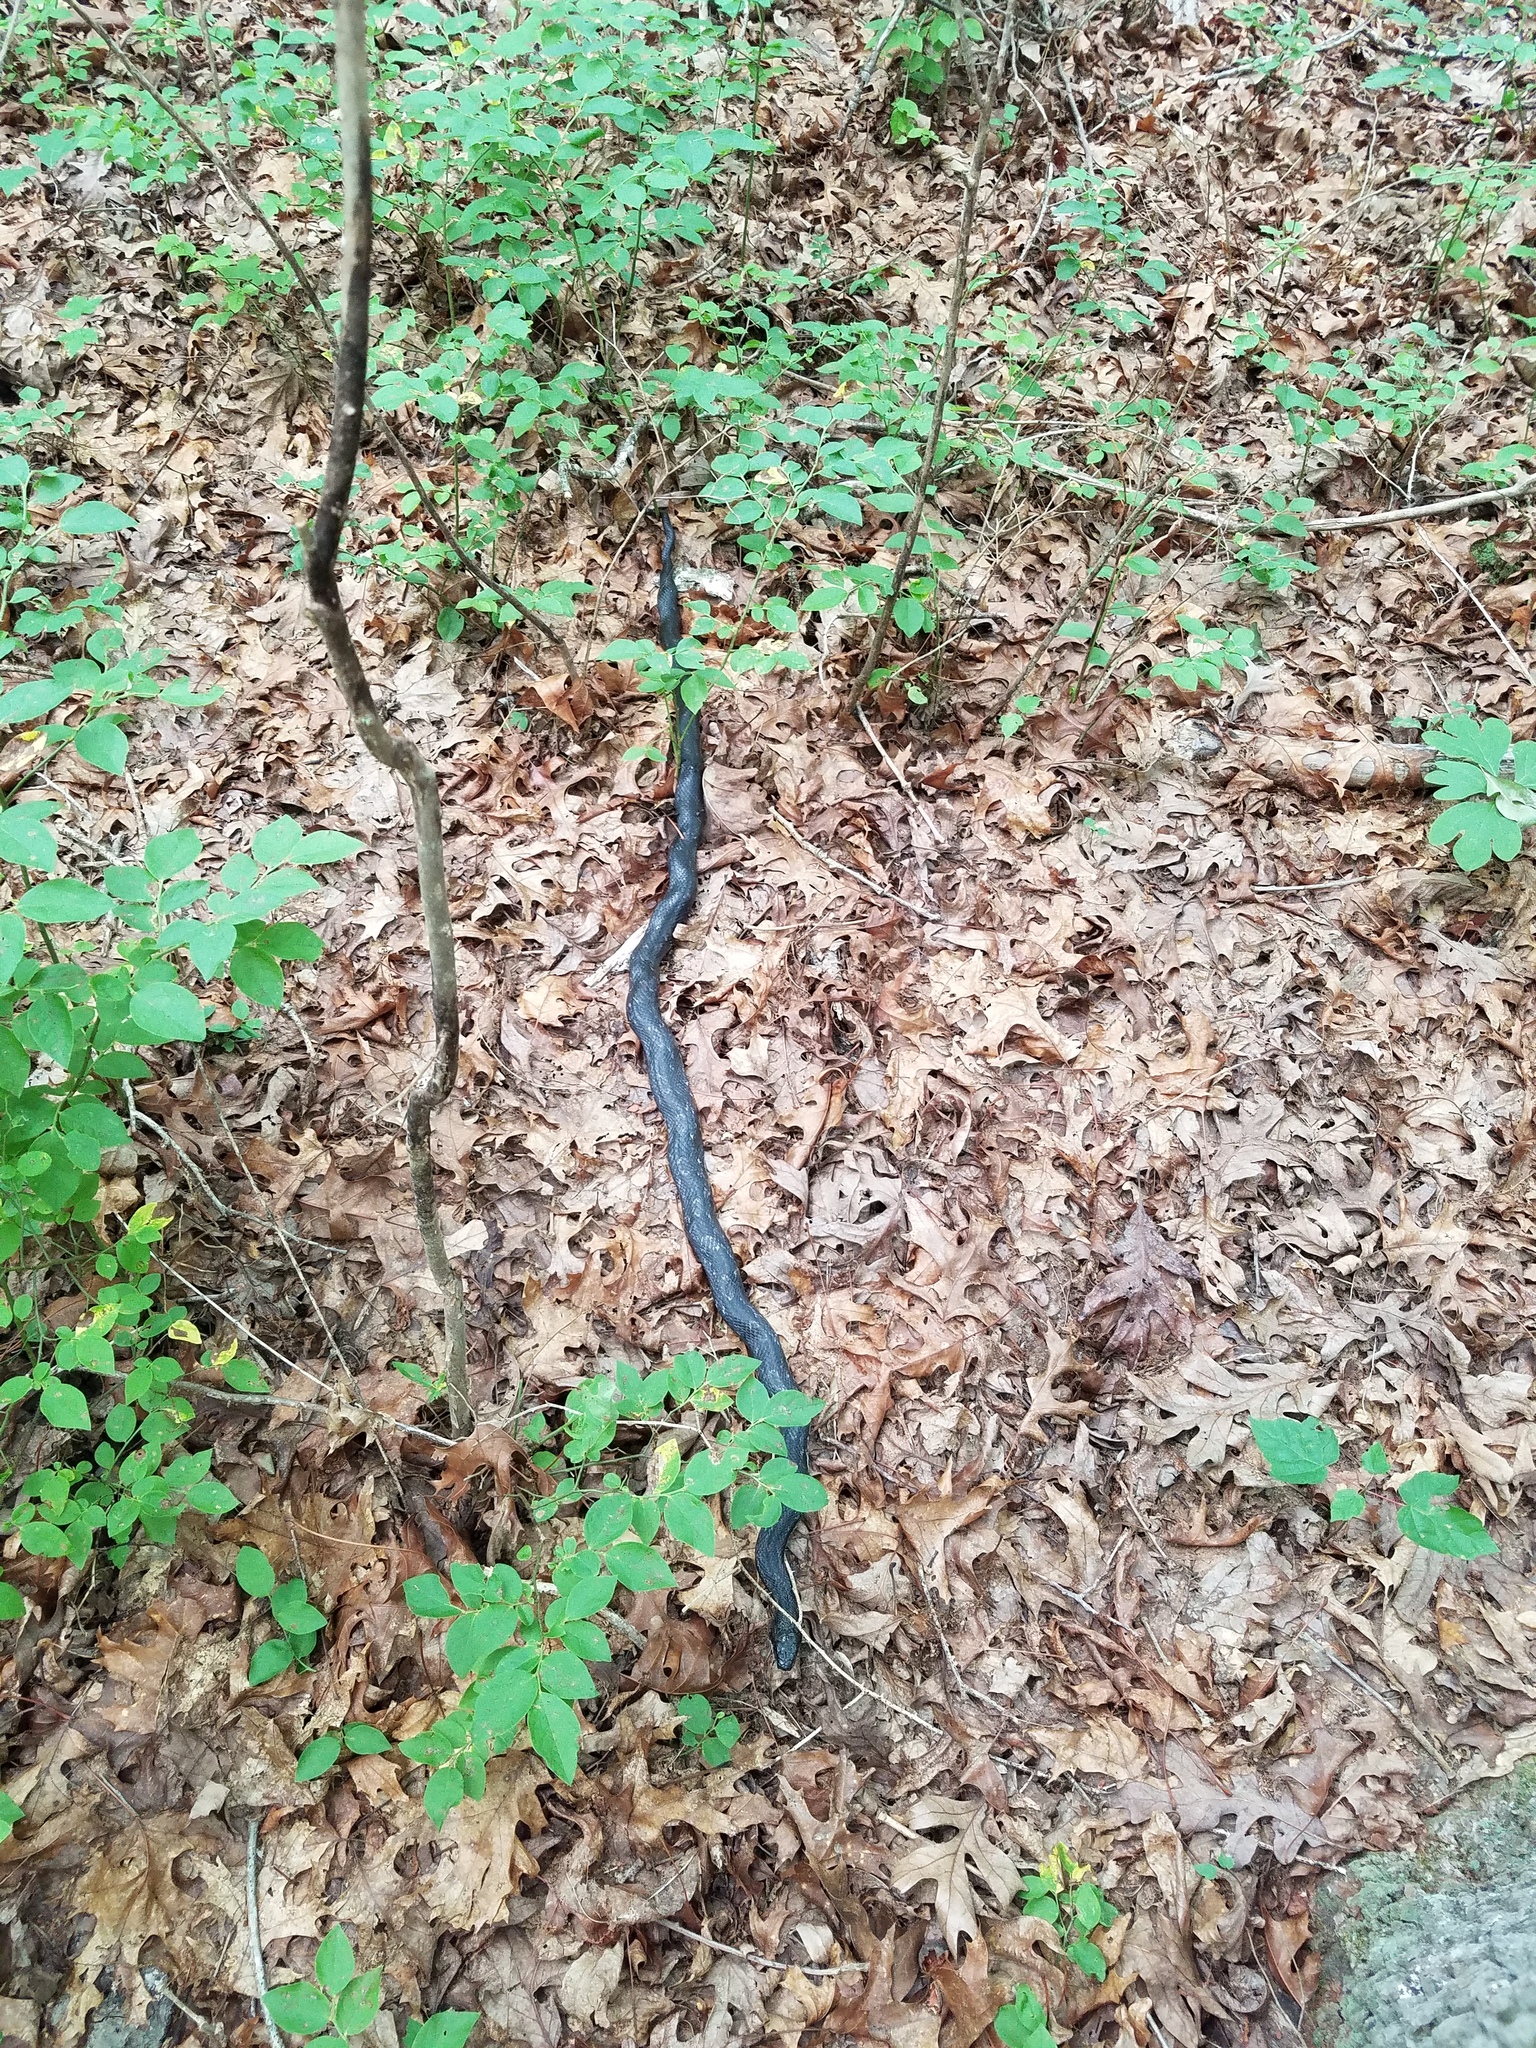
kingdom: Animalia
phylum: Chordata
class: Squamata
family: Colubridae
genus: Pantherophis
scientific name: Pantherophis spiloides
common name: Gray rat snake
